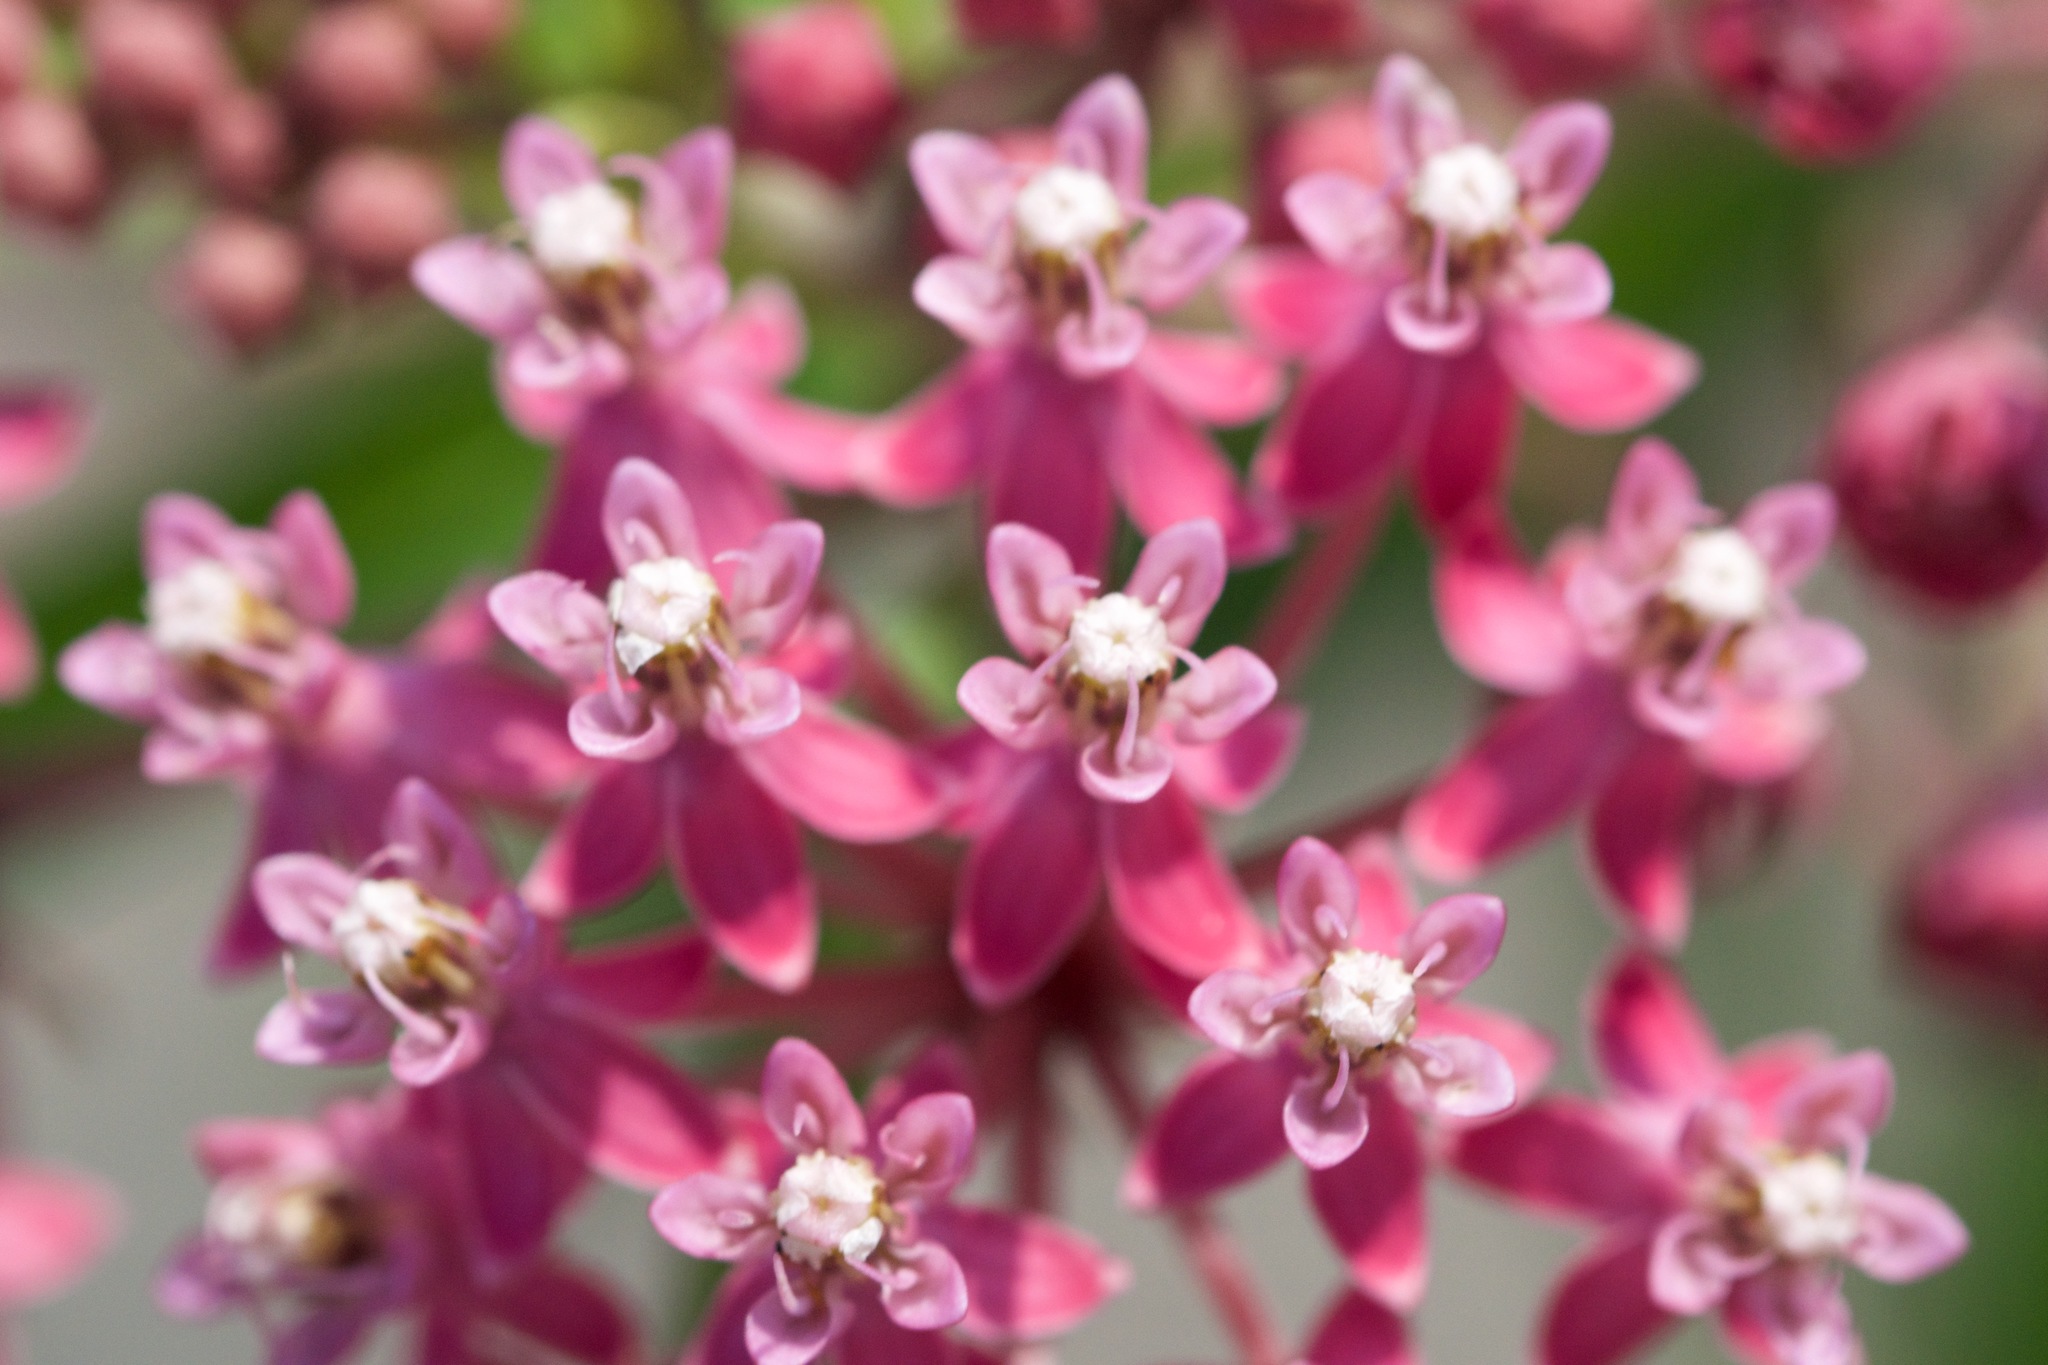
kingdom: Plantae
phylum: Tracheophyta
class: Magnoliopsida
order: Gentianales
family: Apocynaceae
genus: Asclepias
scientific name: Asclepias incarnata
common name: Swamp milkweed
